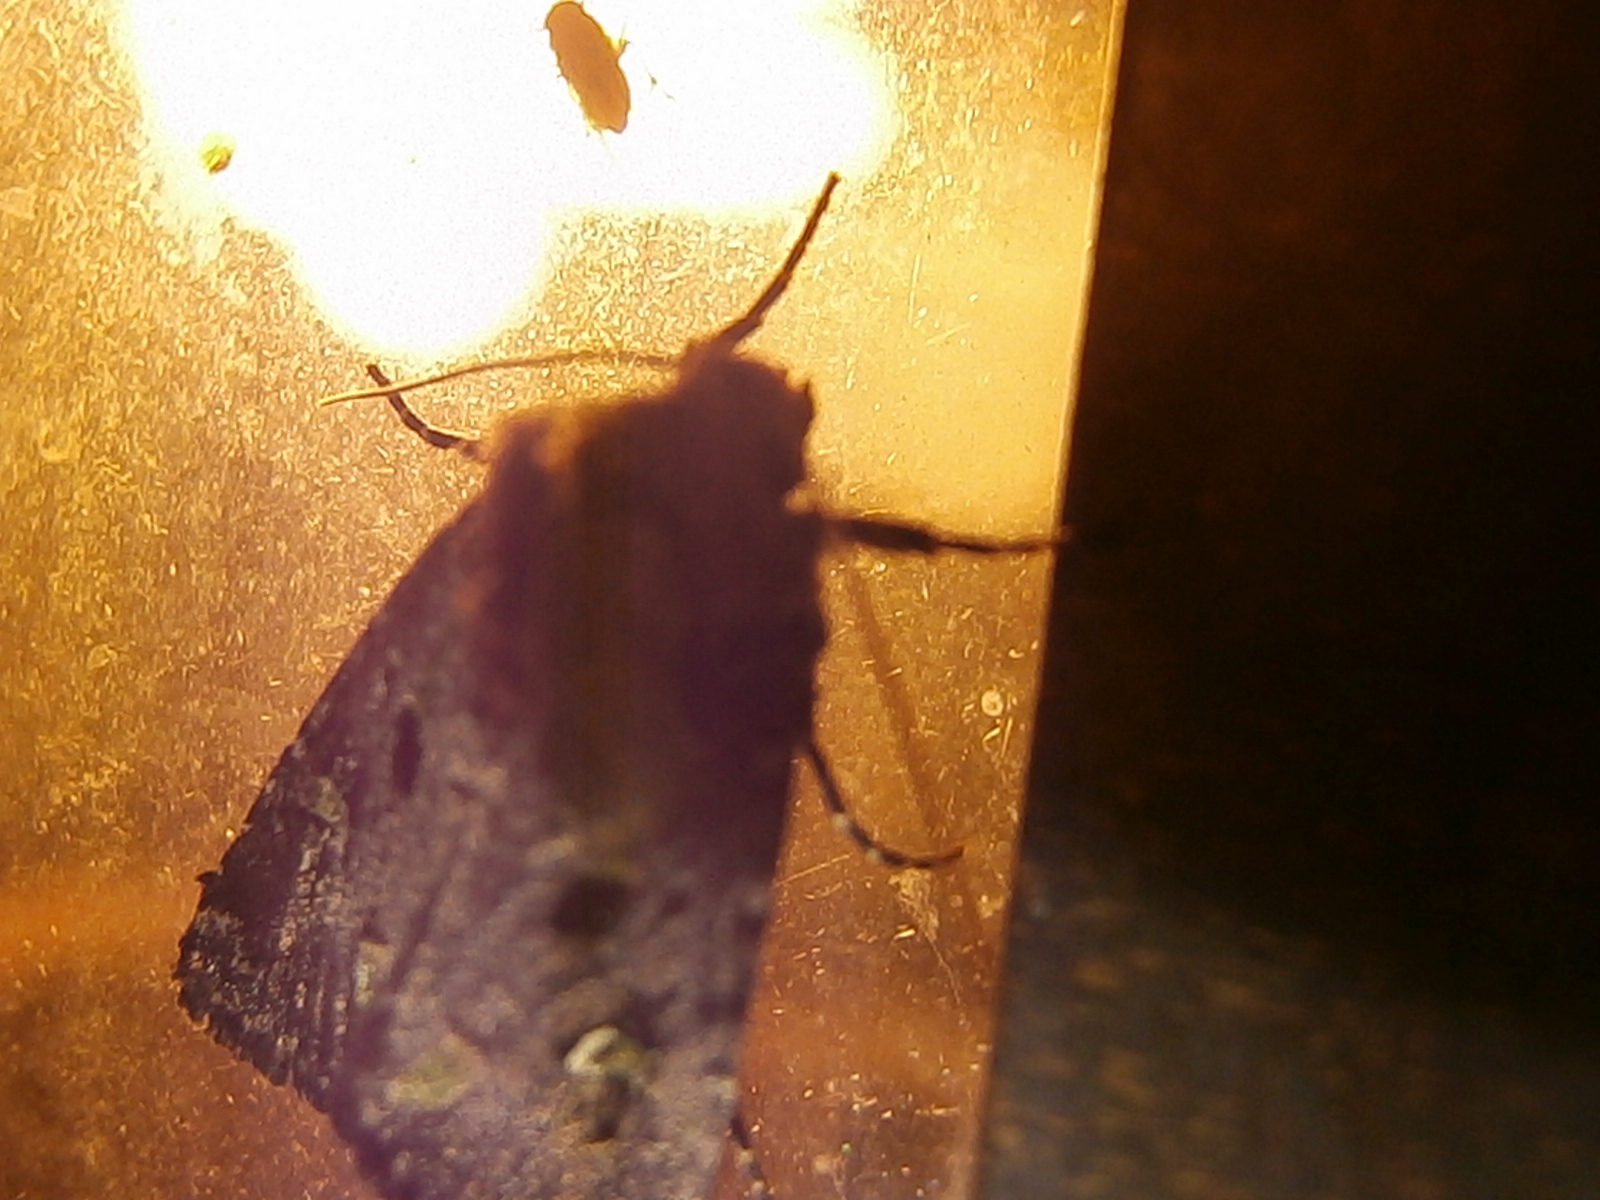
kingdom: Animalia
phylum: Arthropoda
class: Insecta
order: Lepidoptera
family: Noctuidae
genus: Lacinipolia
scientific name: Lacinipolia renigera
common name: Kidney-spotted minor
